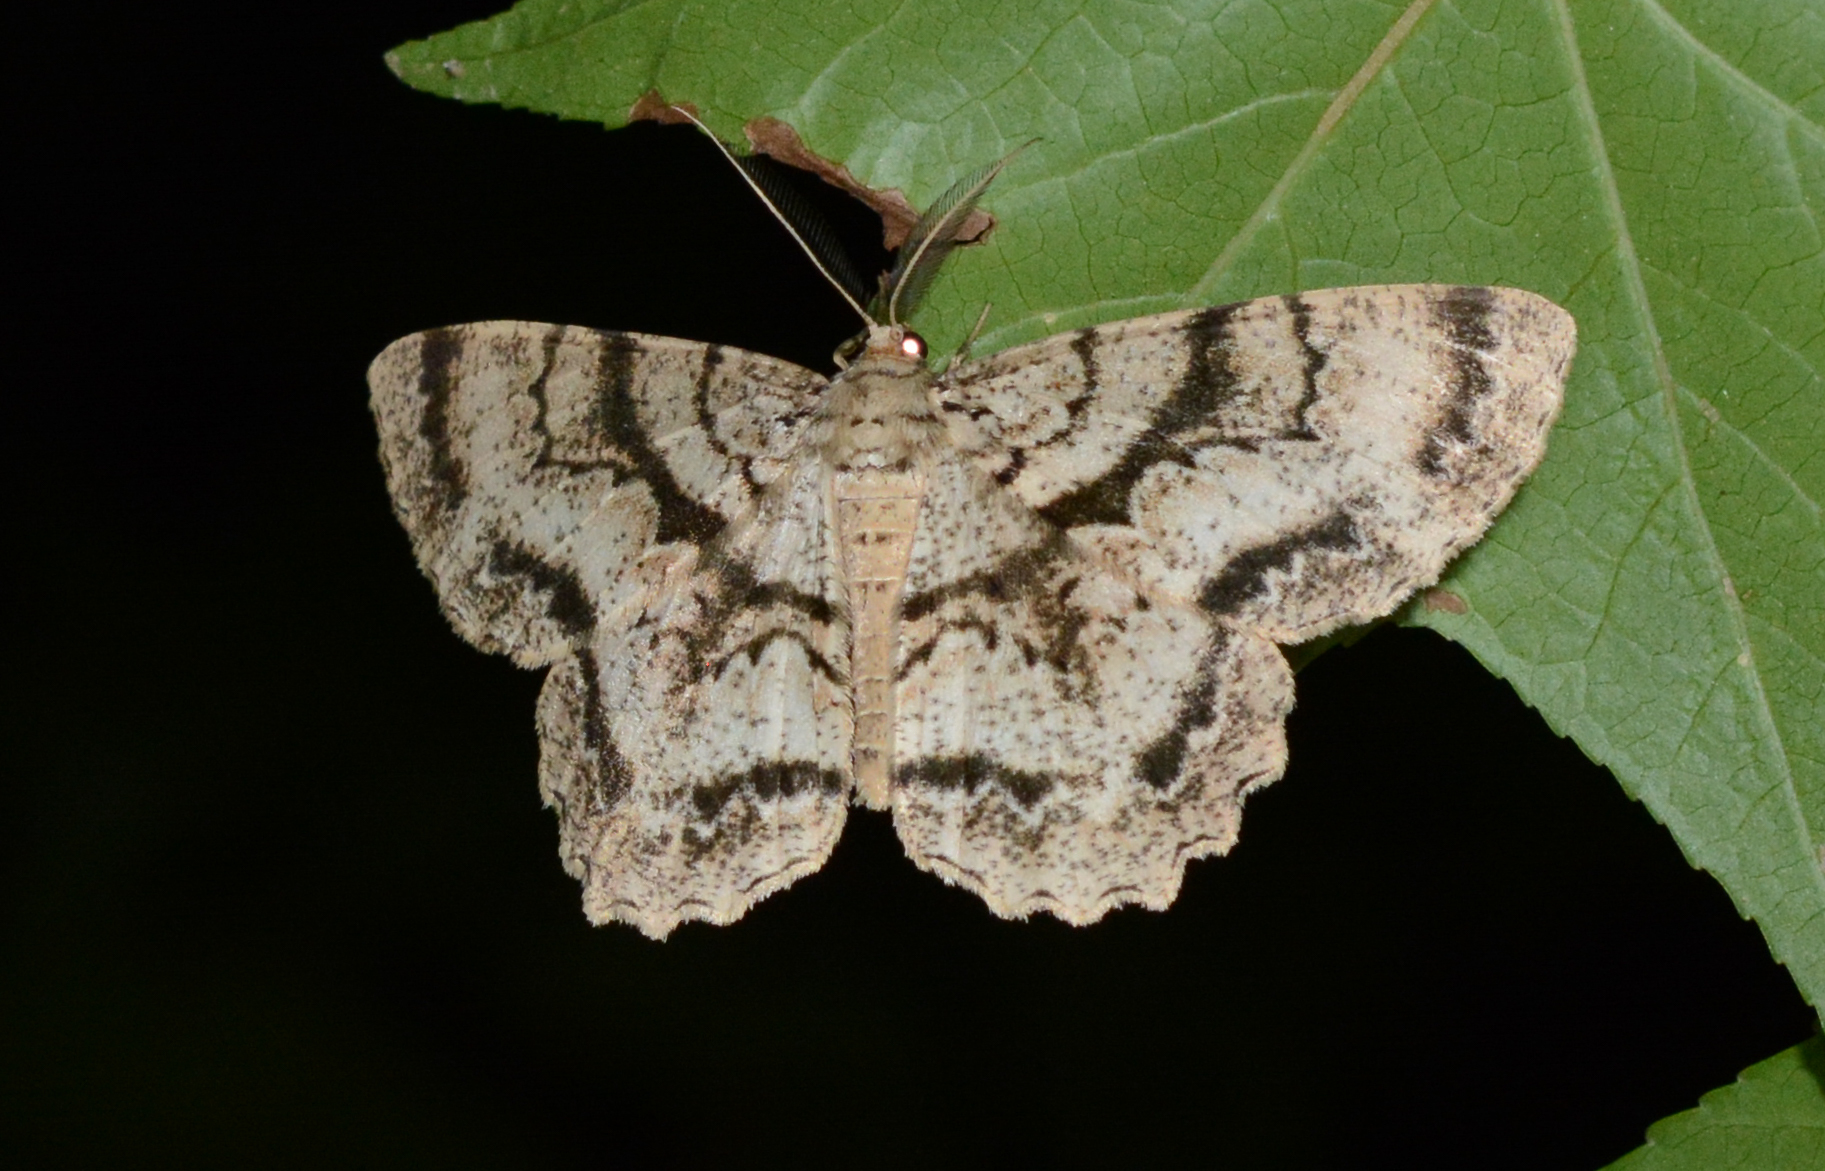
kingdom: Animalia
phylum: Arthropoda
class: Insecta
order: Lepidoptera
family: Geometridae
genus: Epimecis
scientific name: Epimecis hortaria
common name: Tulip-tree beauty
